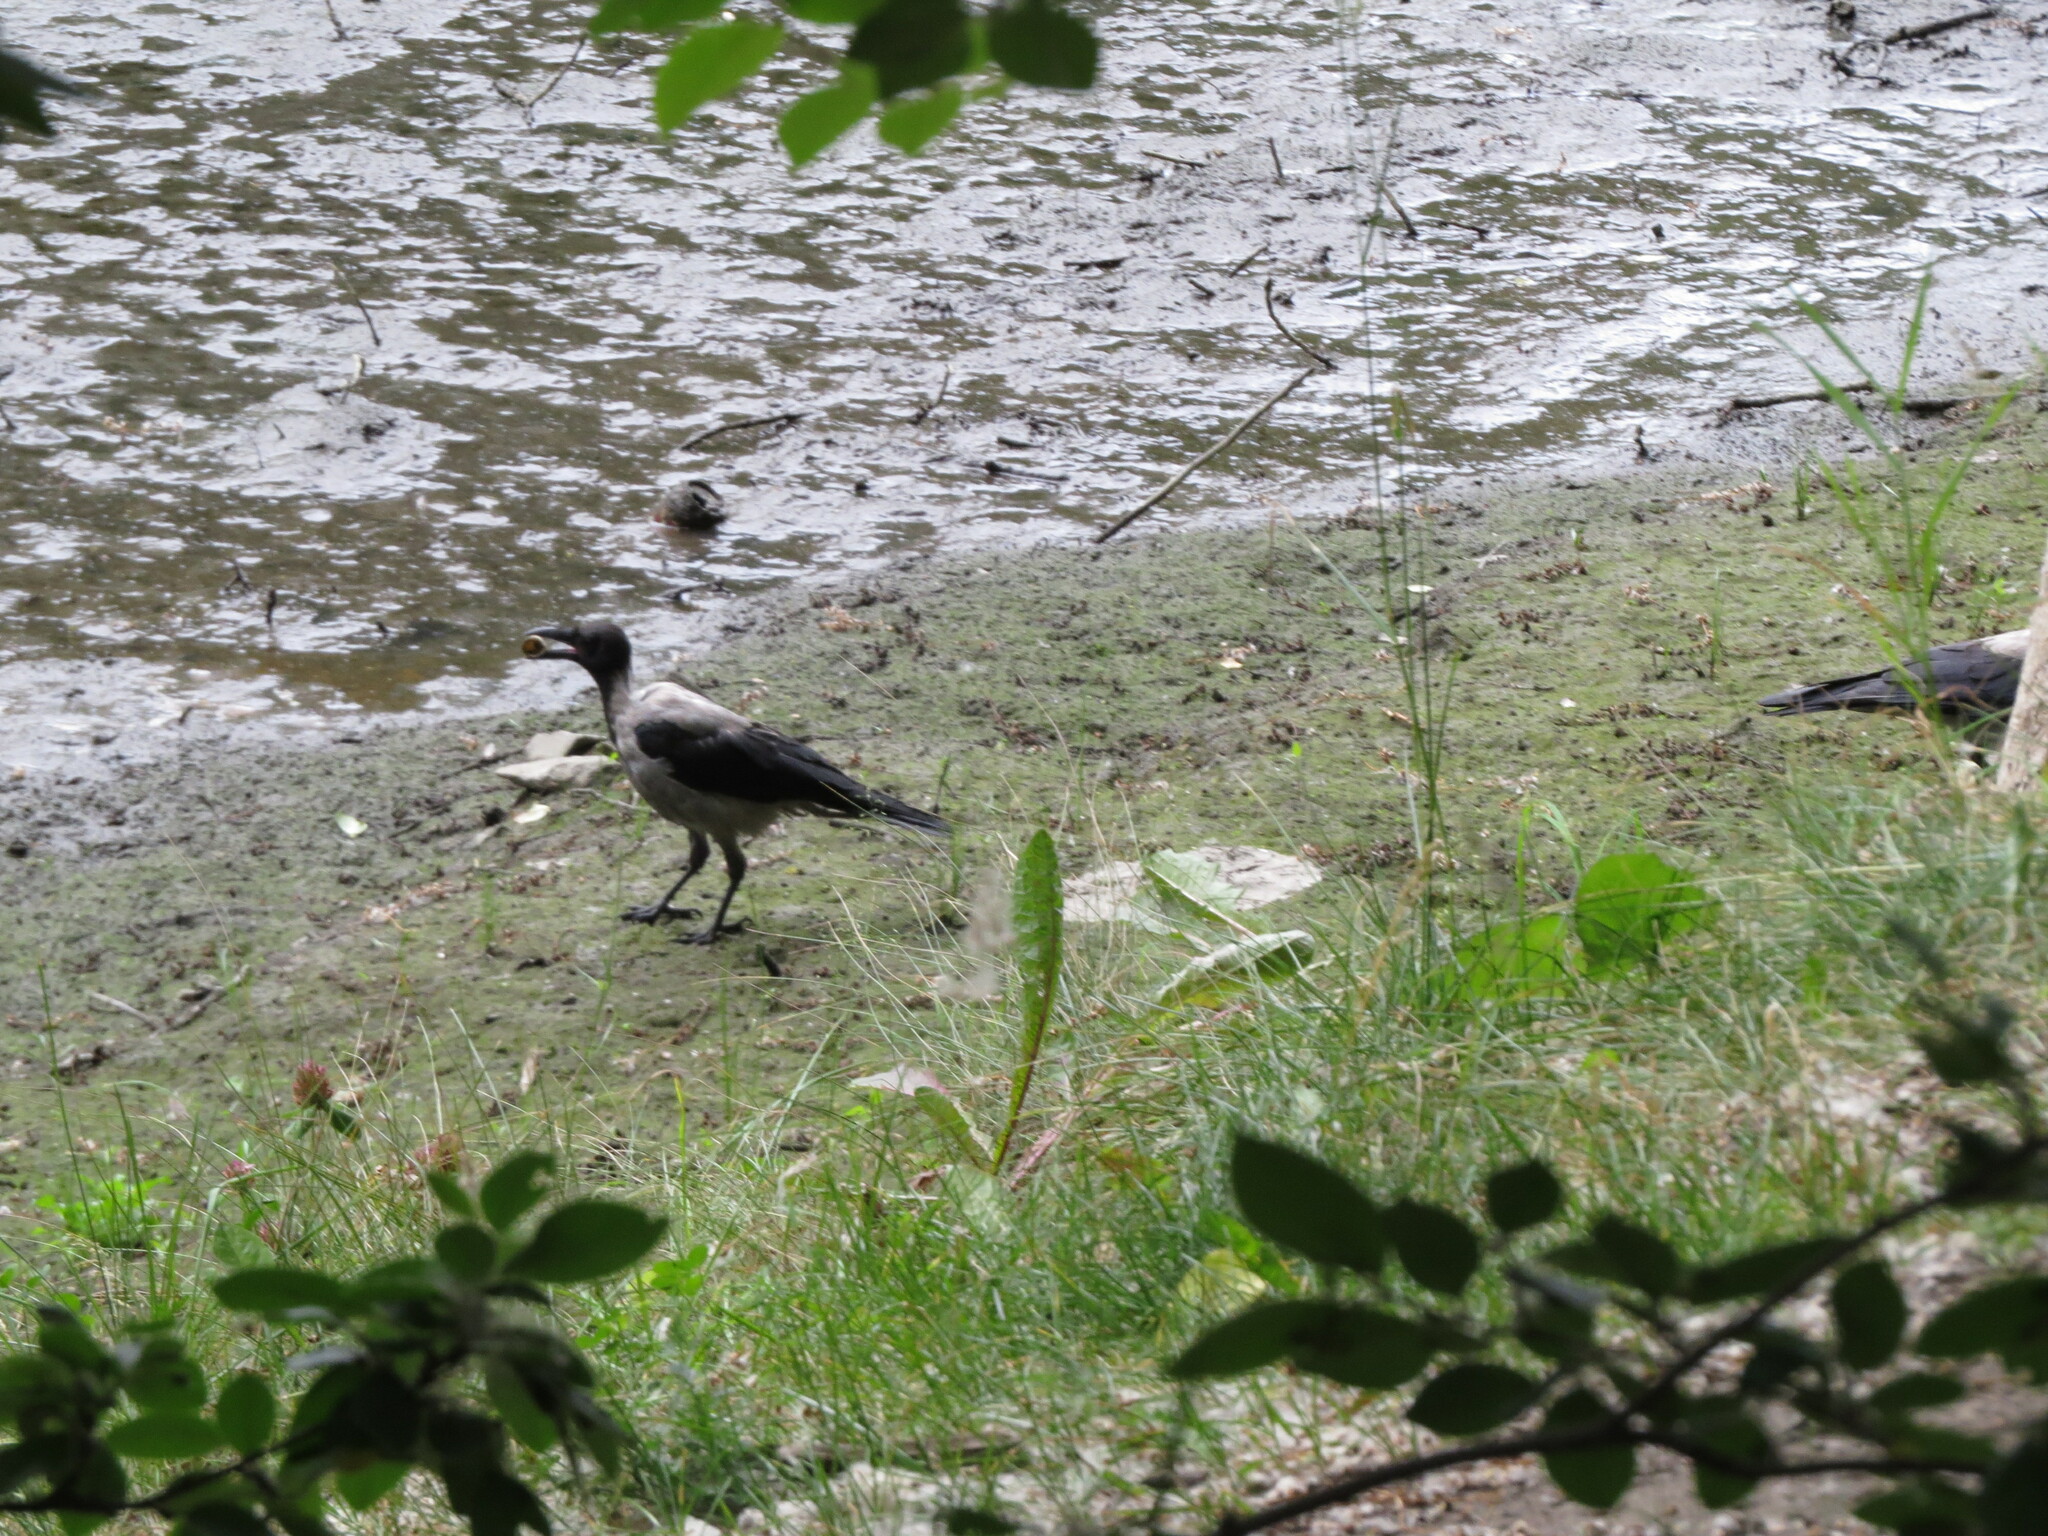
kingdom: Animalia
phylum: Chordata
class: Aves
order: Passeriformes
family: Corvidae
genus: Corvus
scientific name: Corvus cornix
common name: Hooded crow
